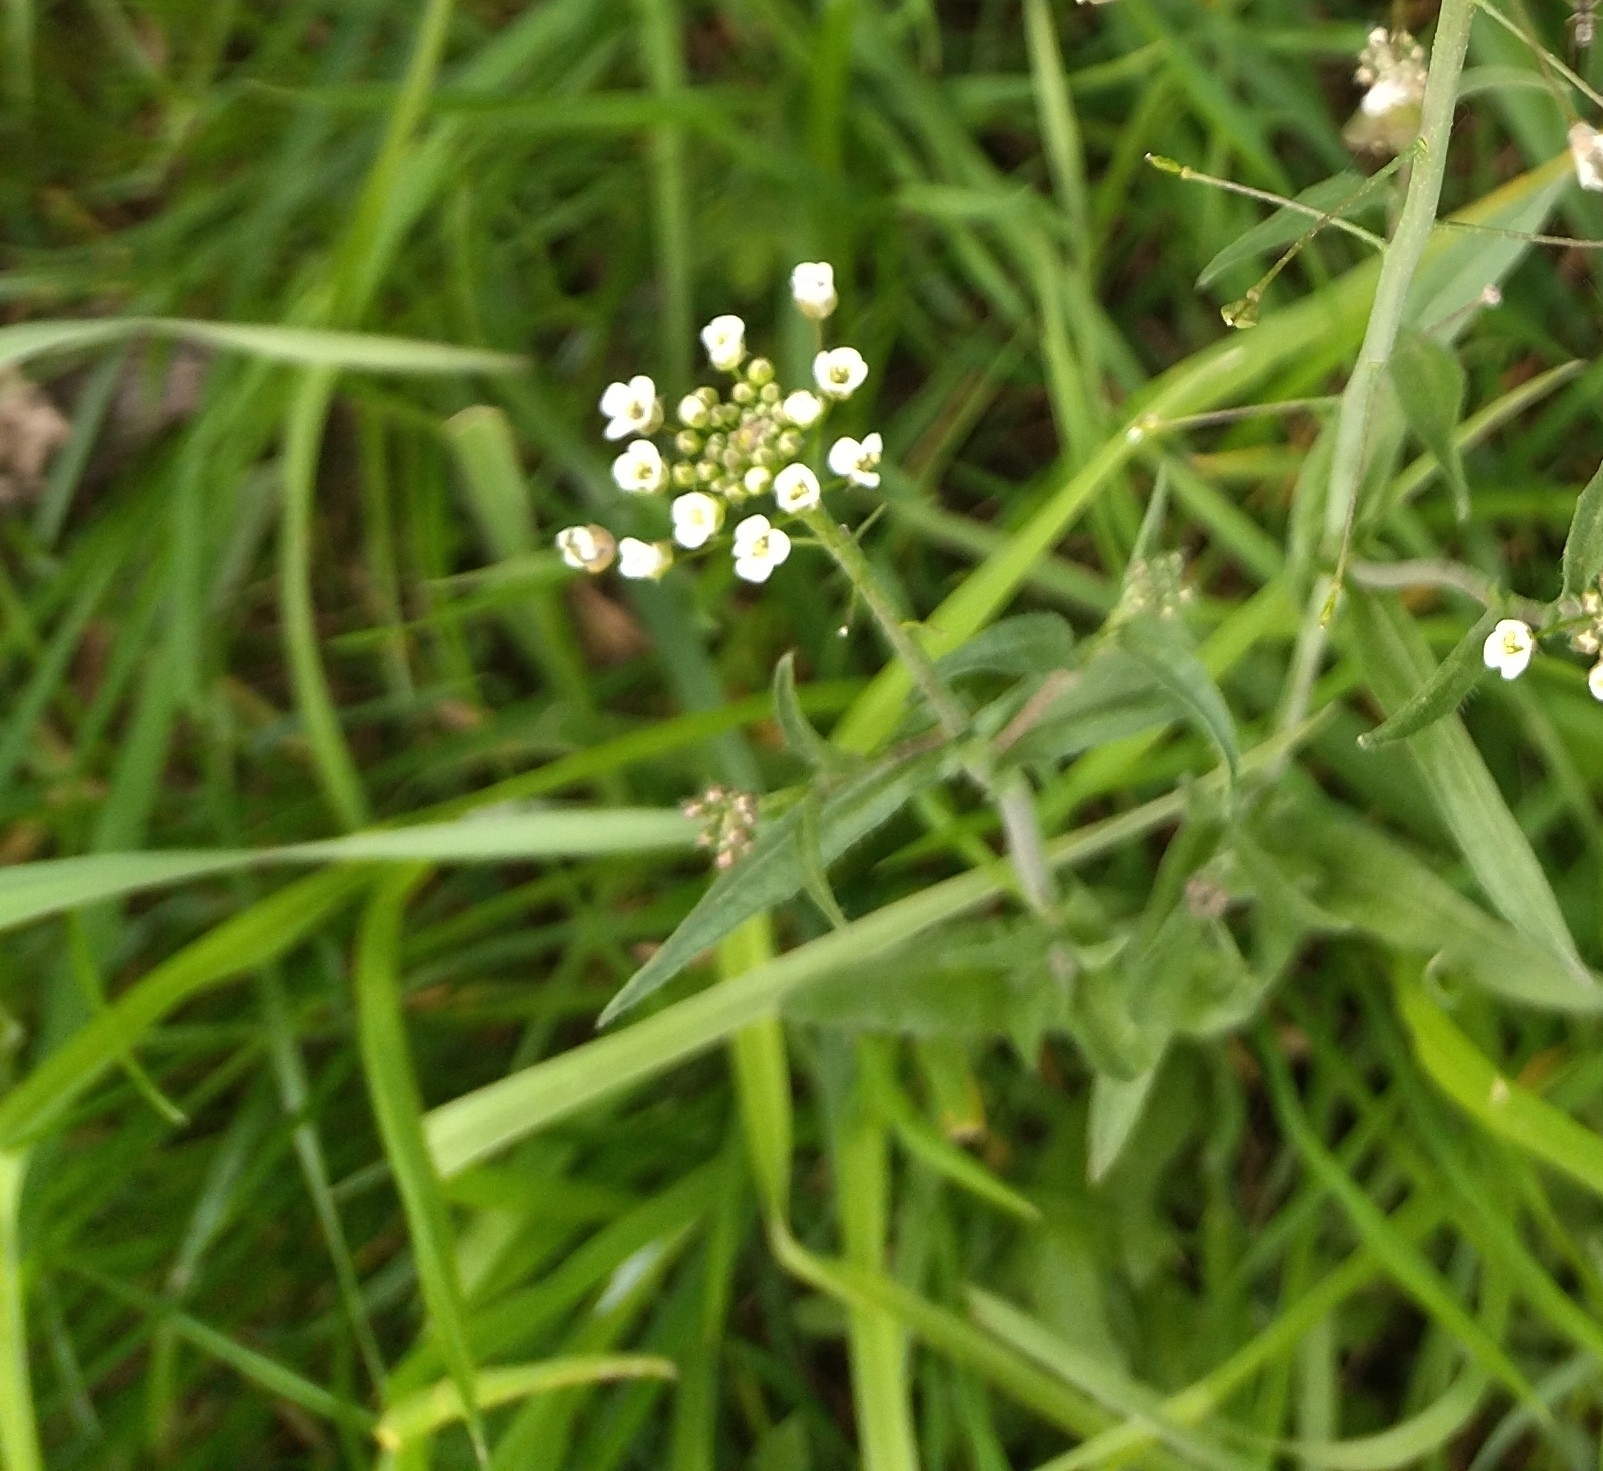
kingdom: Plantae
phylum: Tracheophyta
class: Magnoliopsida
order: Brassicales
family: Brassicaceae
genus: Capsella
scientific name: Capsella bursa-pastoris
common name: Shepherd's purse
